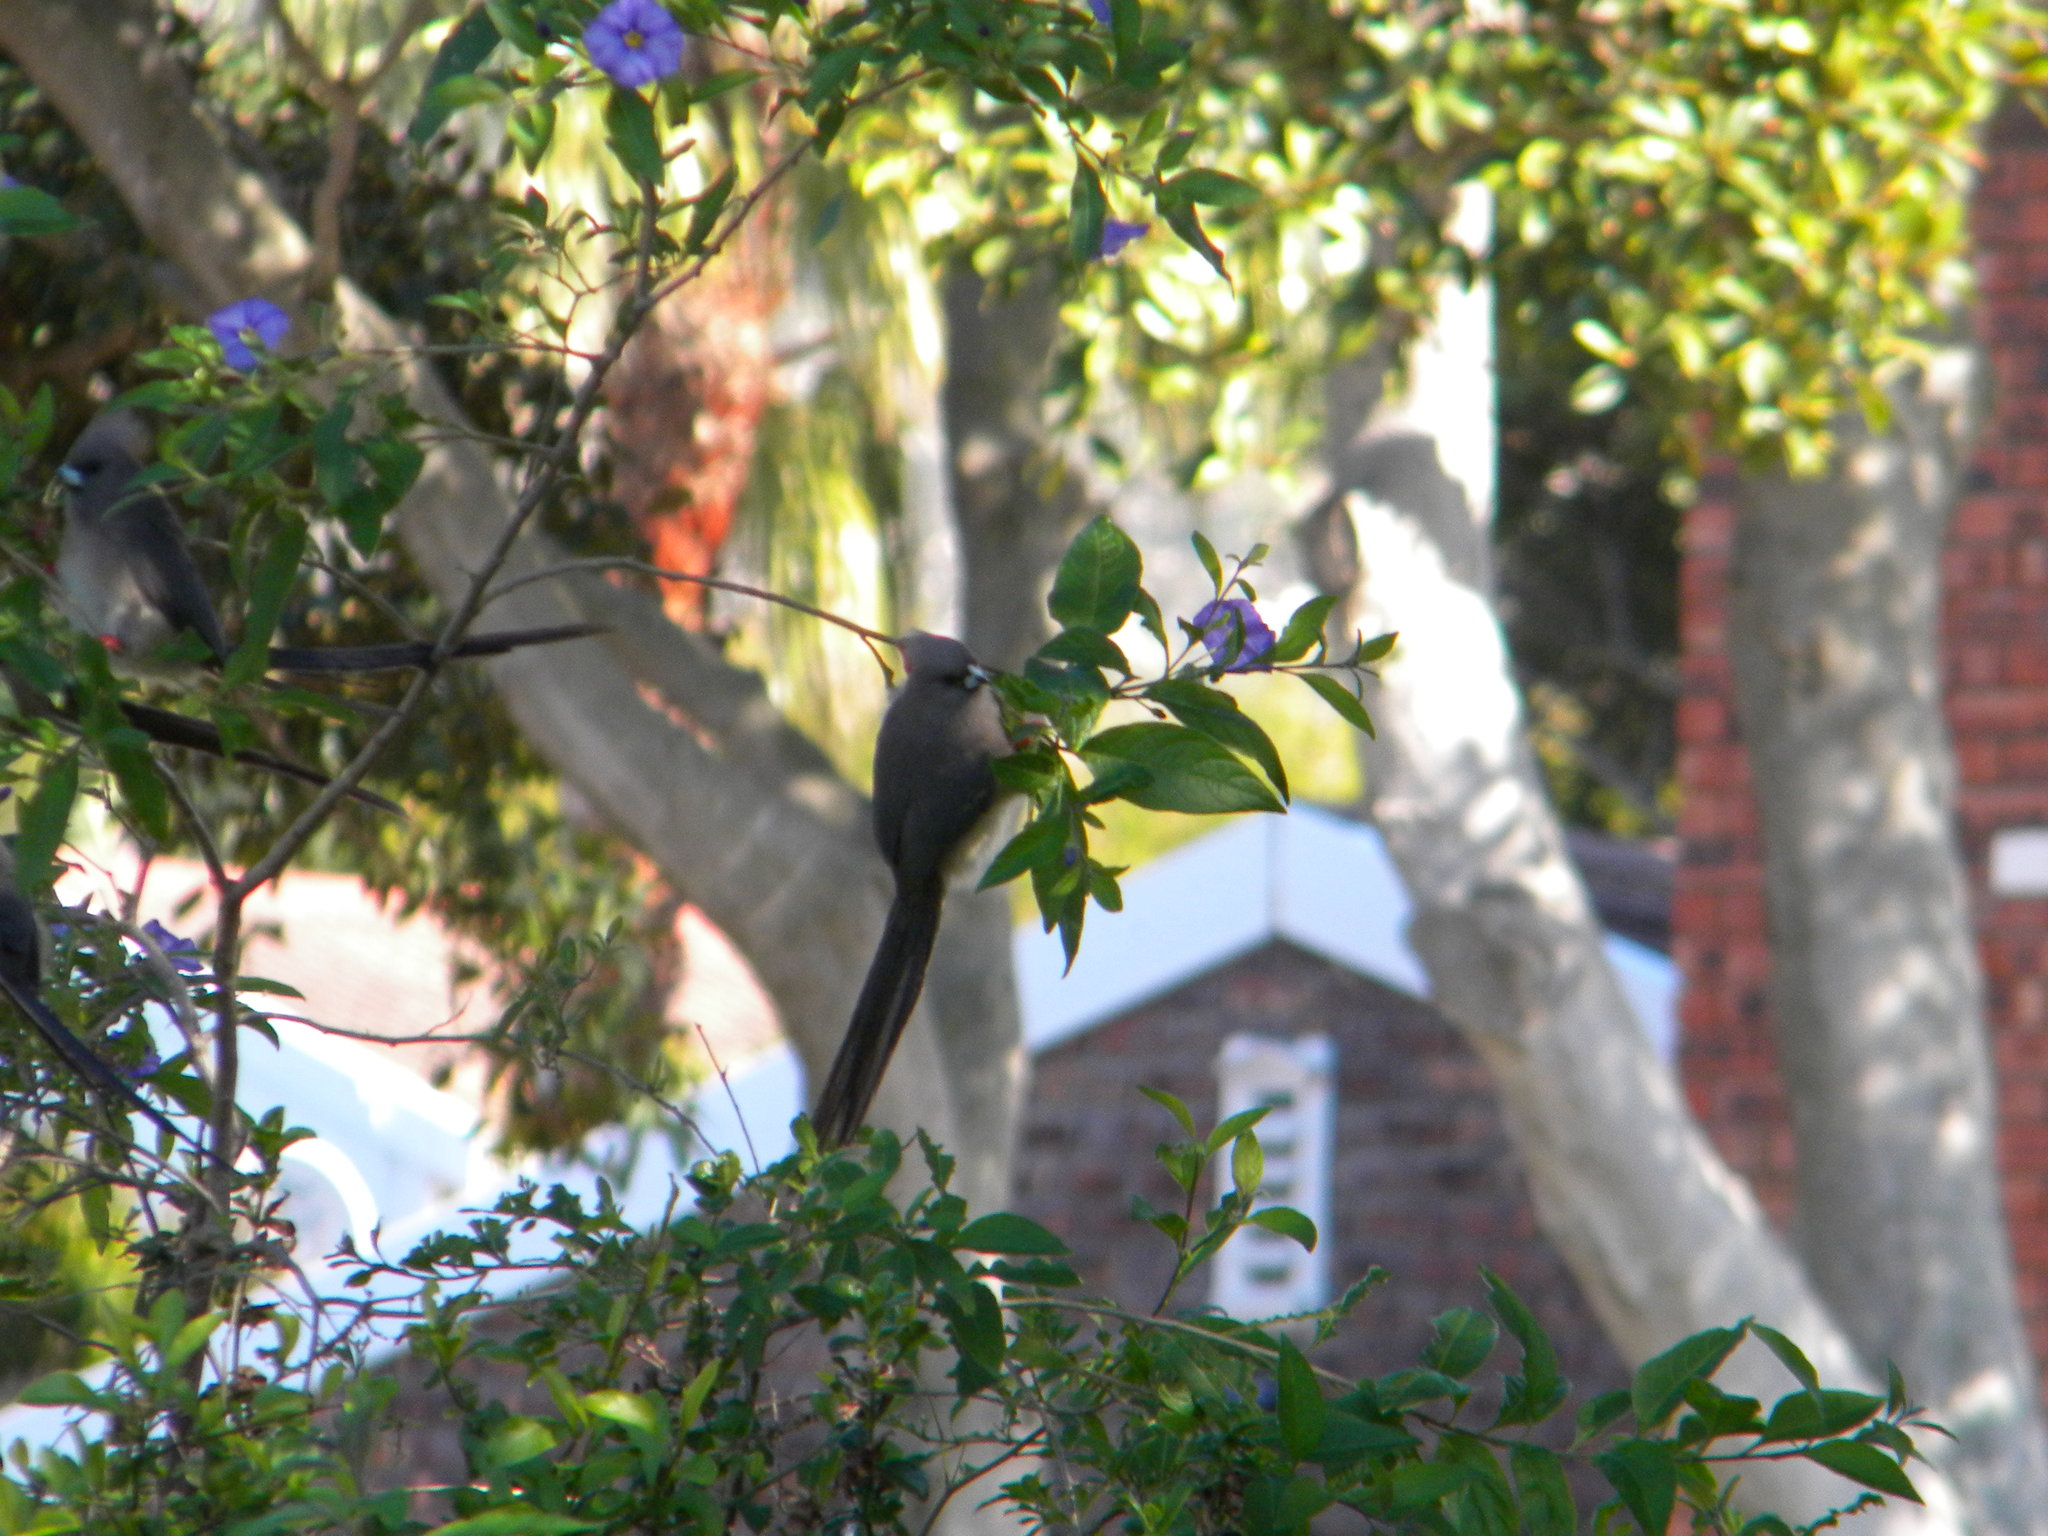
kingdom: Animalia
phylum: Chordata
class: Aves
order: Coliiformes
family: Coliidae
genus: Colius
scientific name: Colius colius
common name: White-backed mousebird
